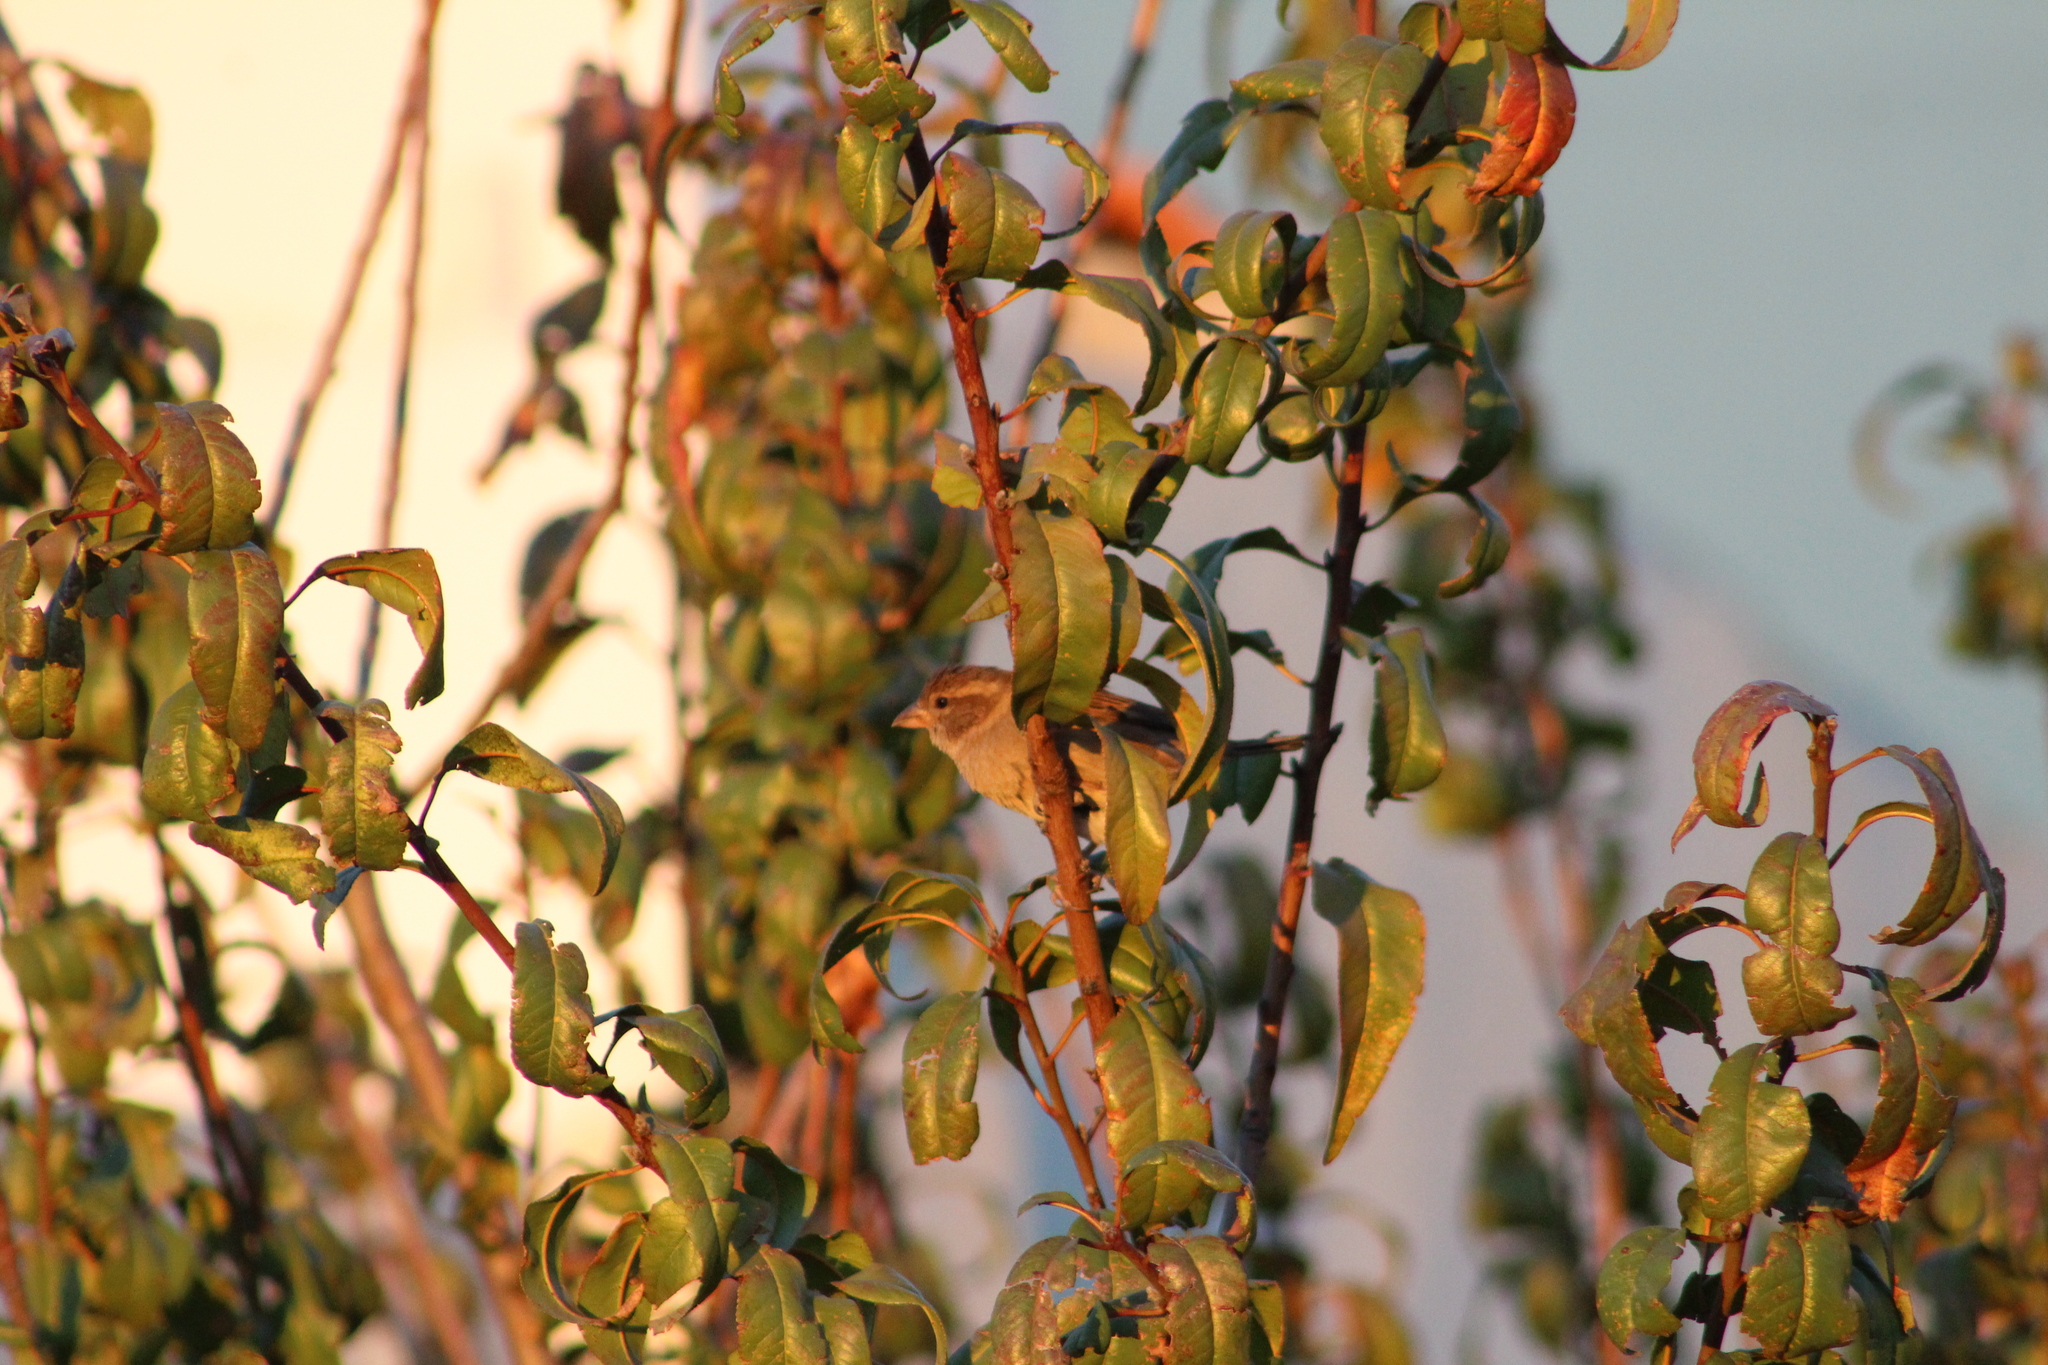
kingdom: Animalia
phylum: Chordata
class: Aves
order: Passeriformes
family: Passeridae
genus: Passer
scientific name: Passer domesticus
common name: House sparrow
